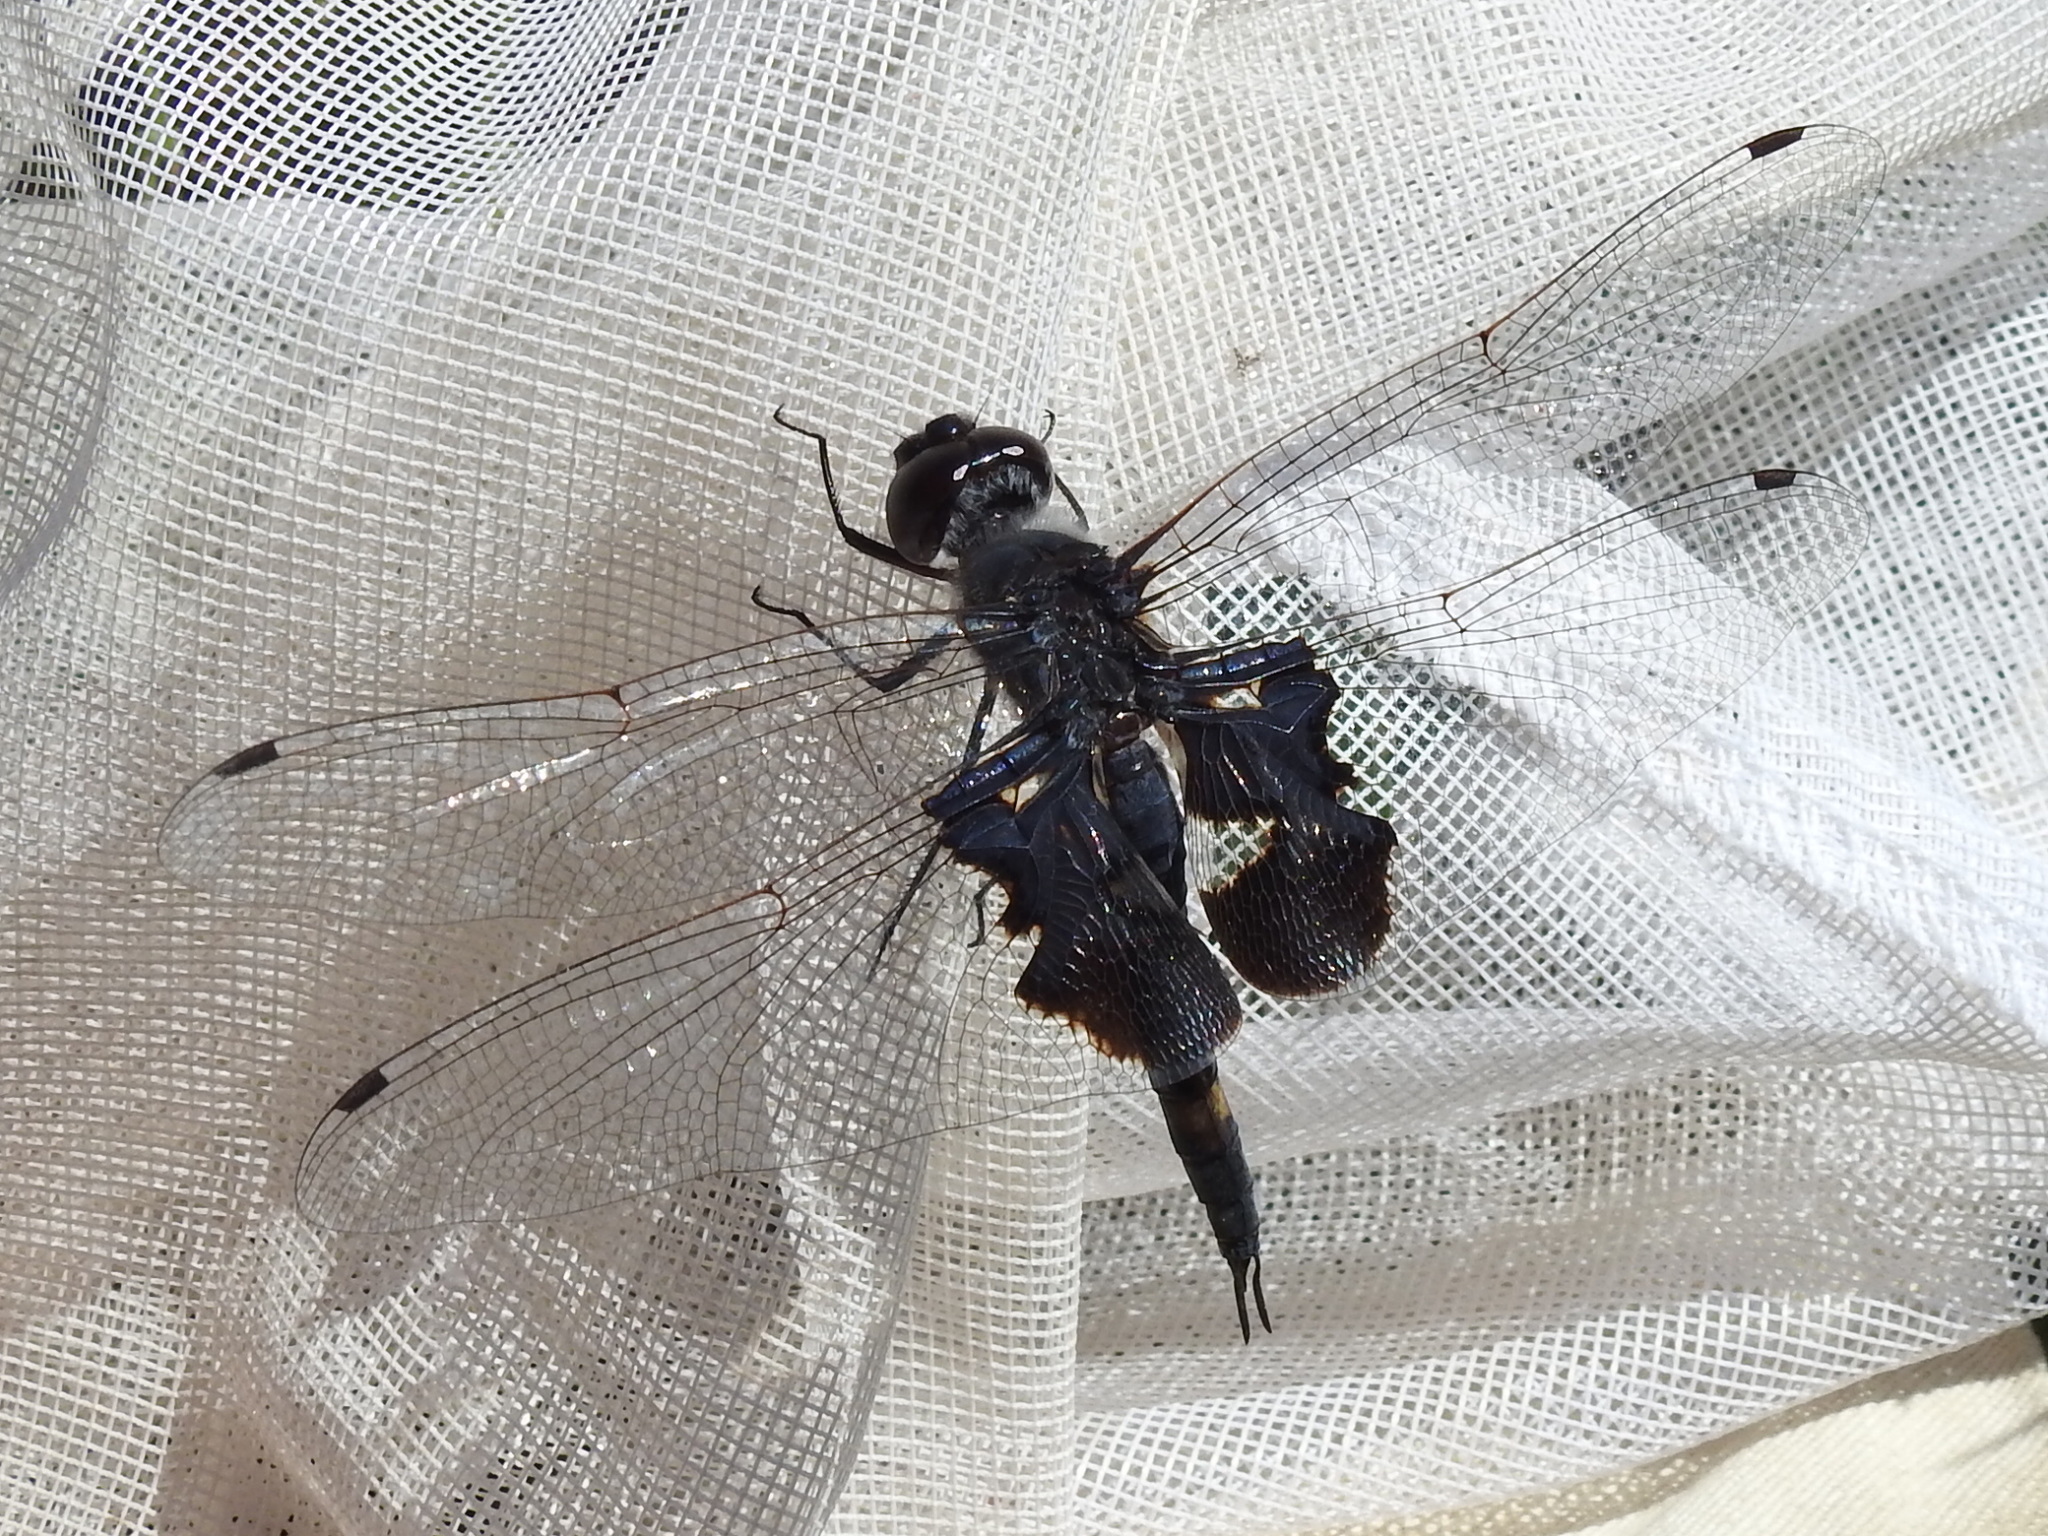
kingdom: Animalia
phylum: Arthropoda
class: Insecta
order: Odonata
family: Libellulidae
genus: Tramea
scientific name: Tramea lacerata
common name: Black saddlebags
